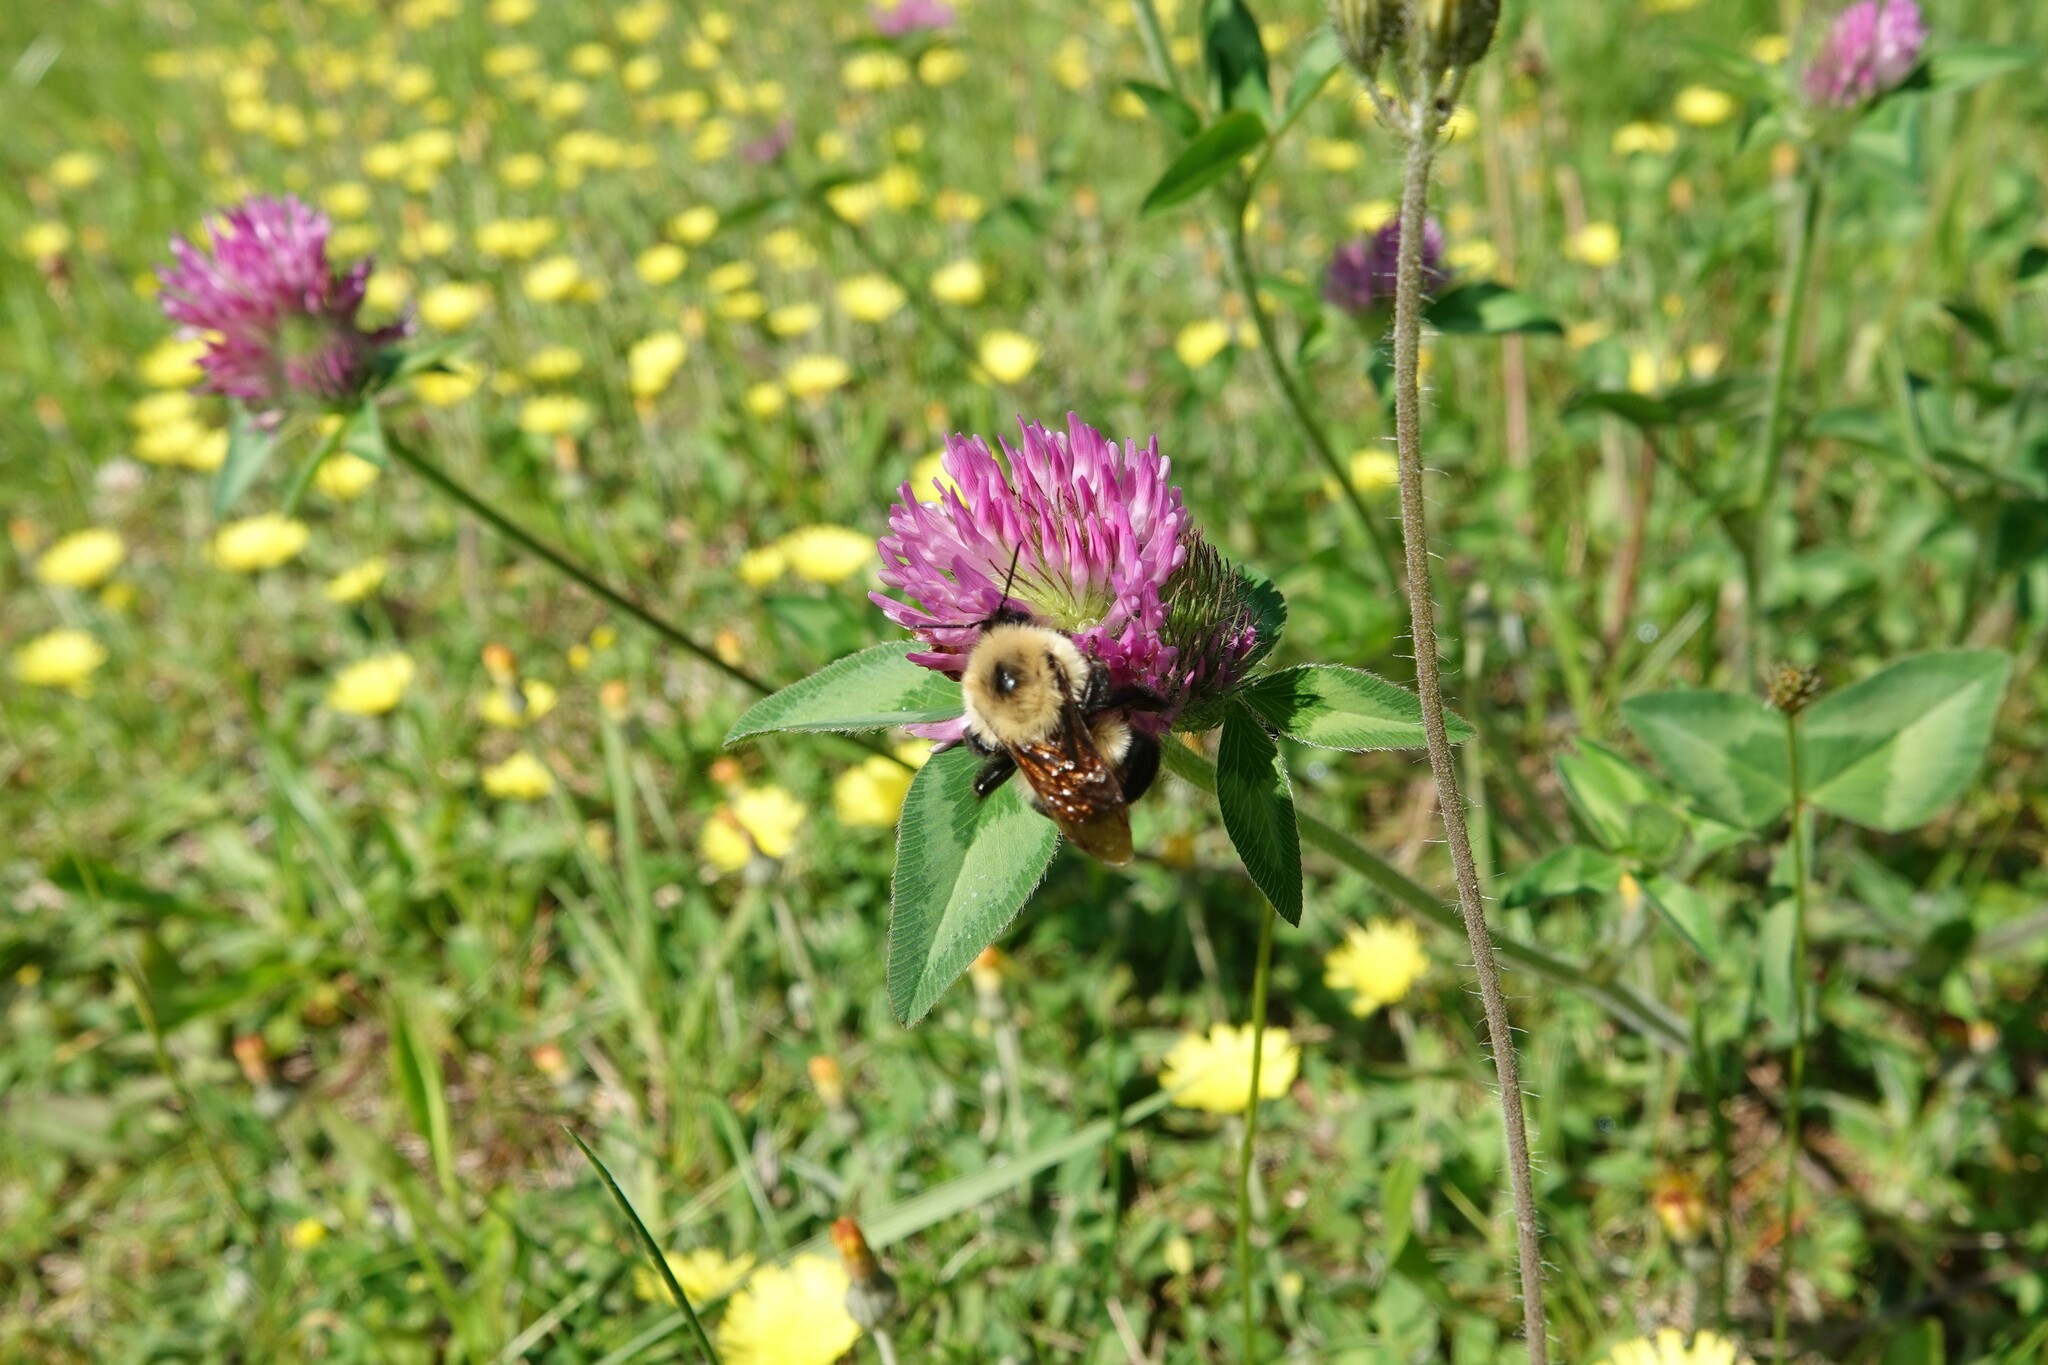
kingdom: Animalia
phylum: Arthropoda
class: Insecta
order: Hymenoptera
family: Apidae
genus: Bombus
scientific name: Bombus bimaculatus
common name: Two-spotted bumble bee
